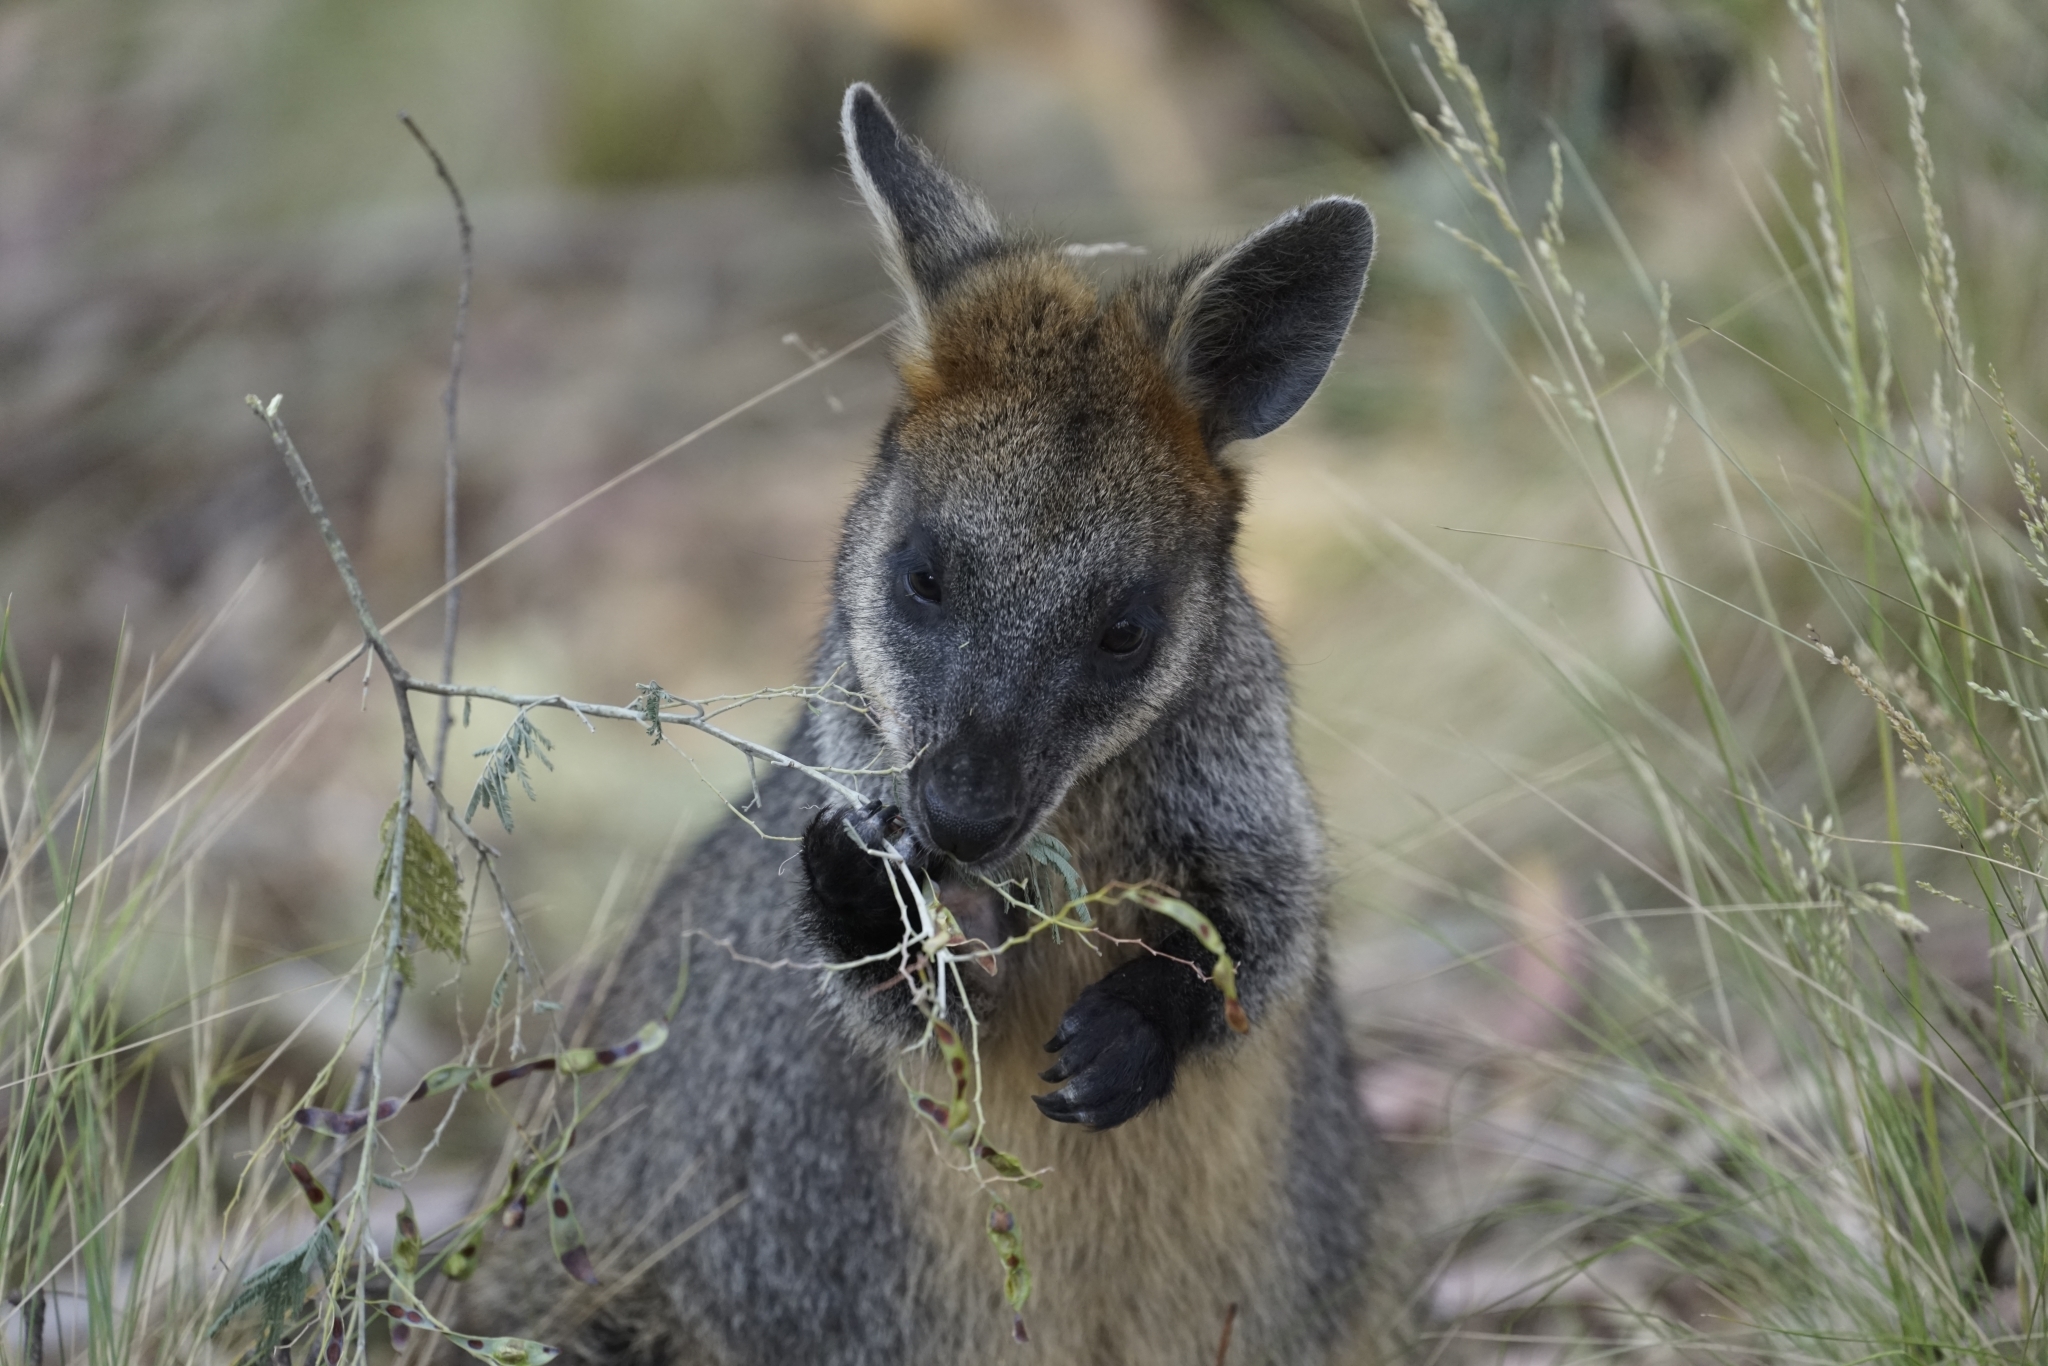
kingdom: Animalia
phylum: Chordata
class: Mammalia
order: Diprotodontia
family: Macropodidae
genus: Wallabia
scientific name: Wallabia bicolor
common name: Swamp wallaby
